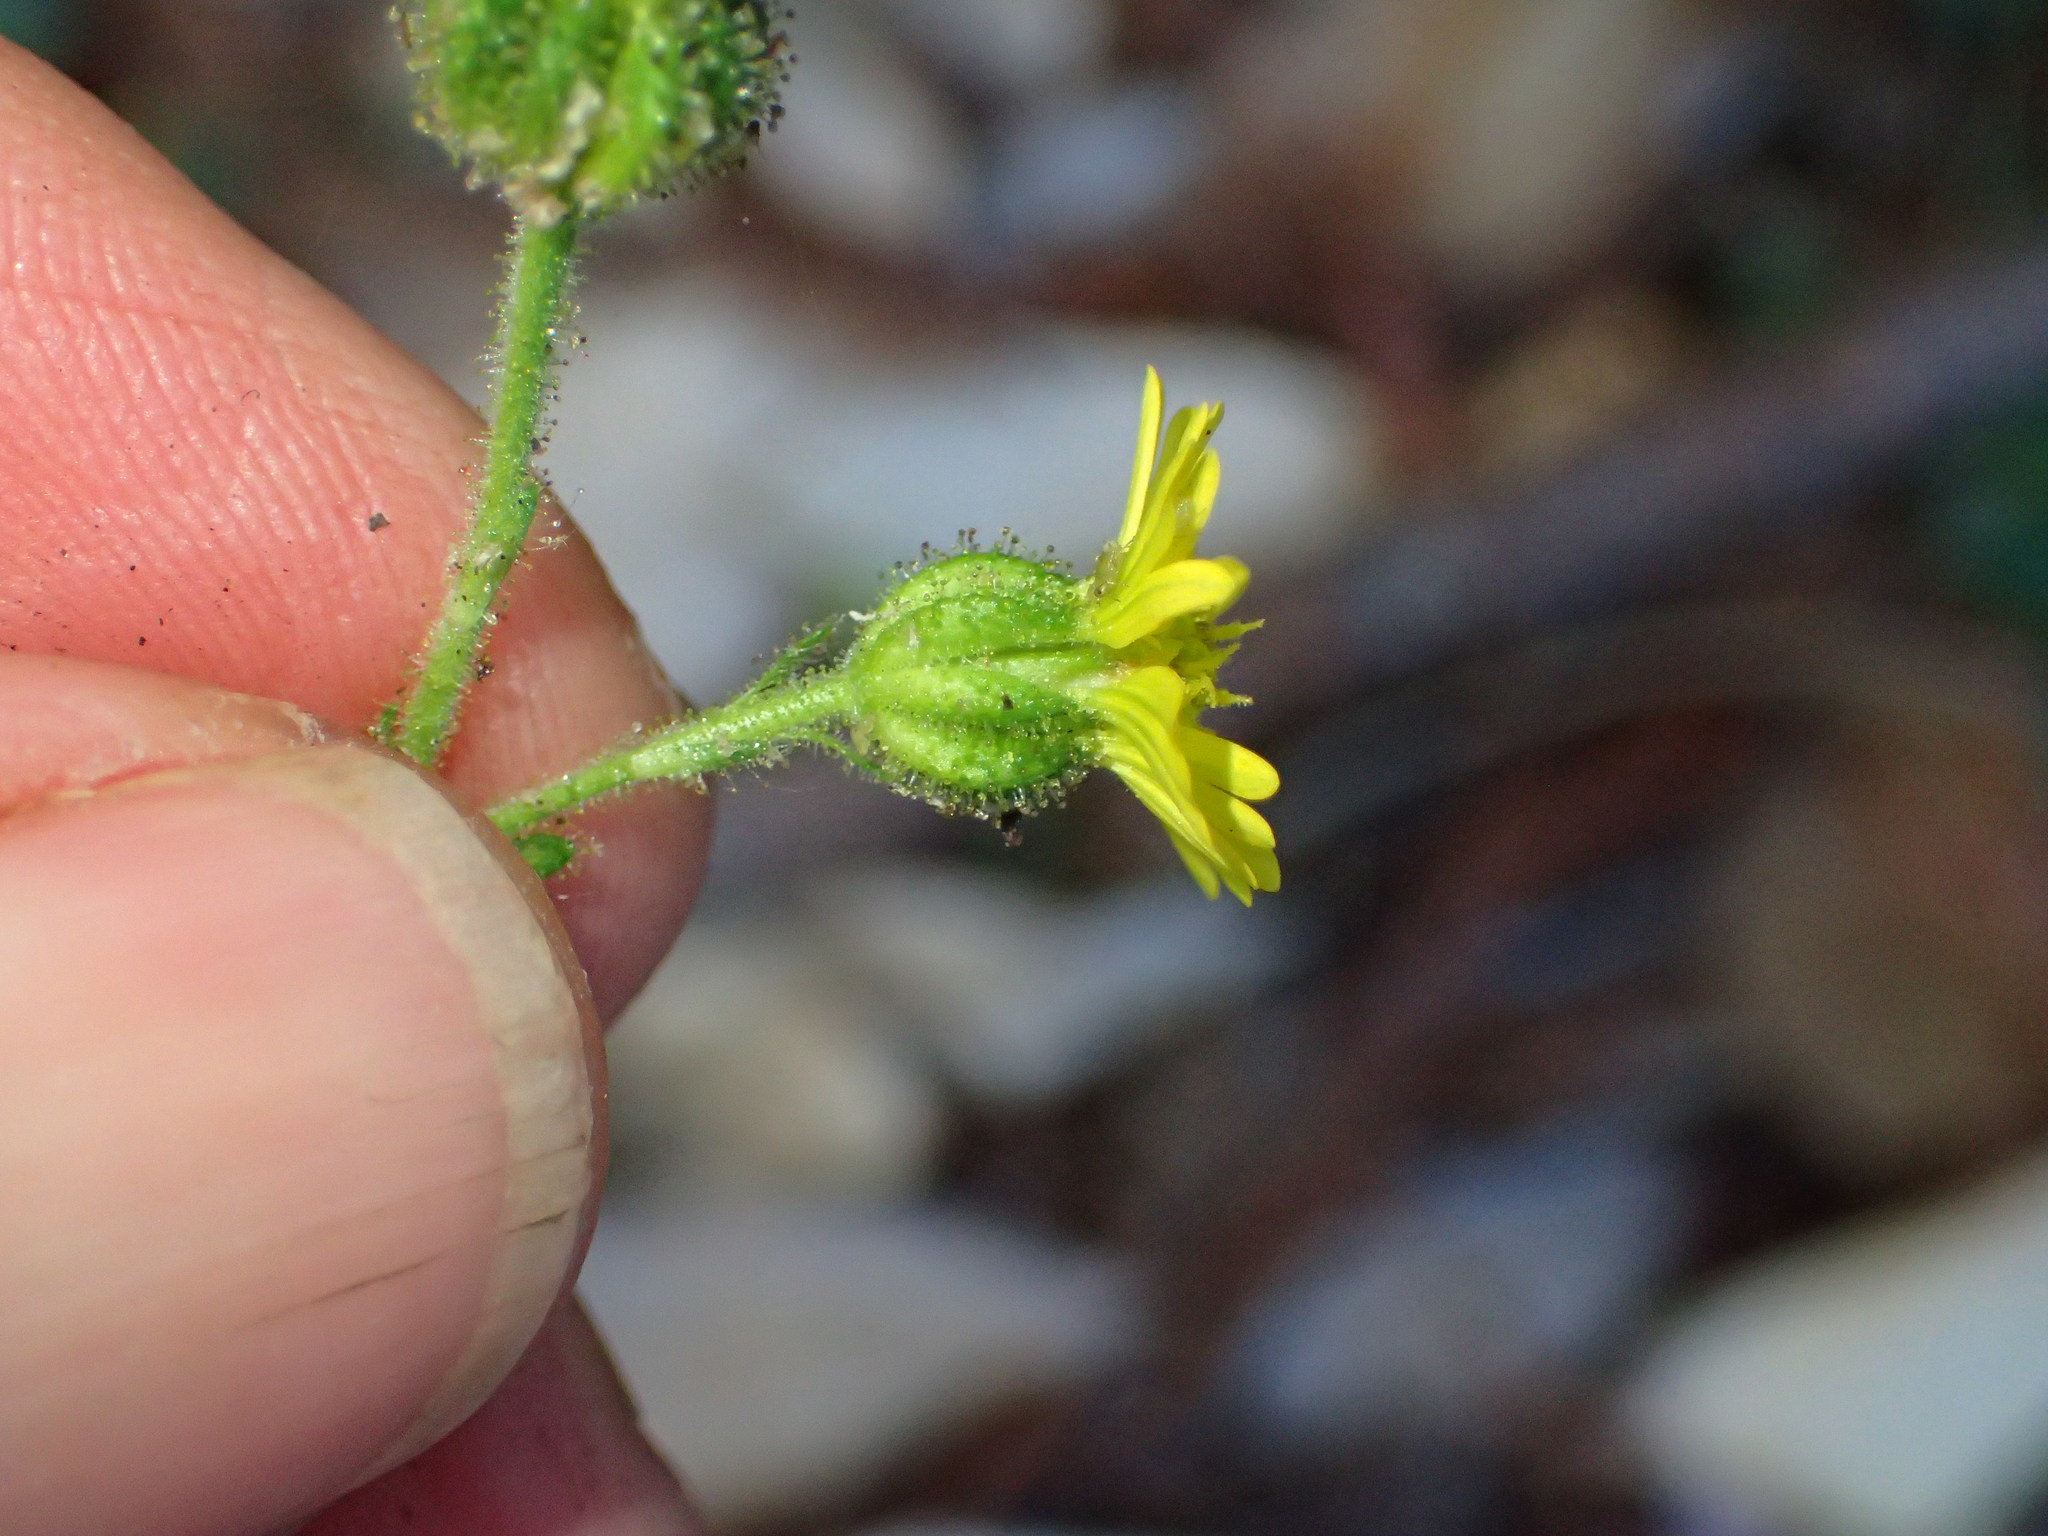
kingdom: Plantae
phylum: Tracheophyta
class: Magnoliopsida
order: Asterales
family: Asteraceae
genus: Anisocarpus
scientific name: Anisocarpus madioides
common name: Woodland madia
